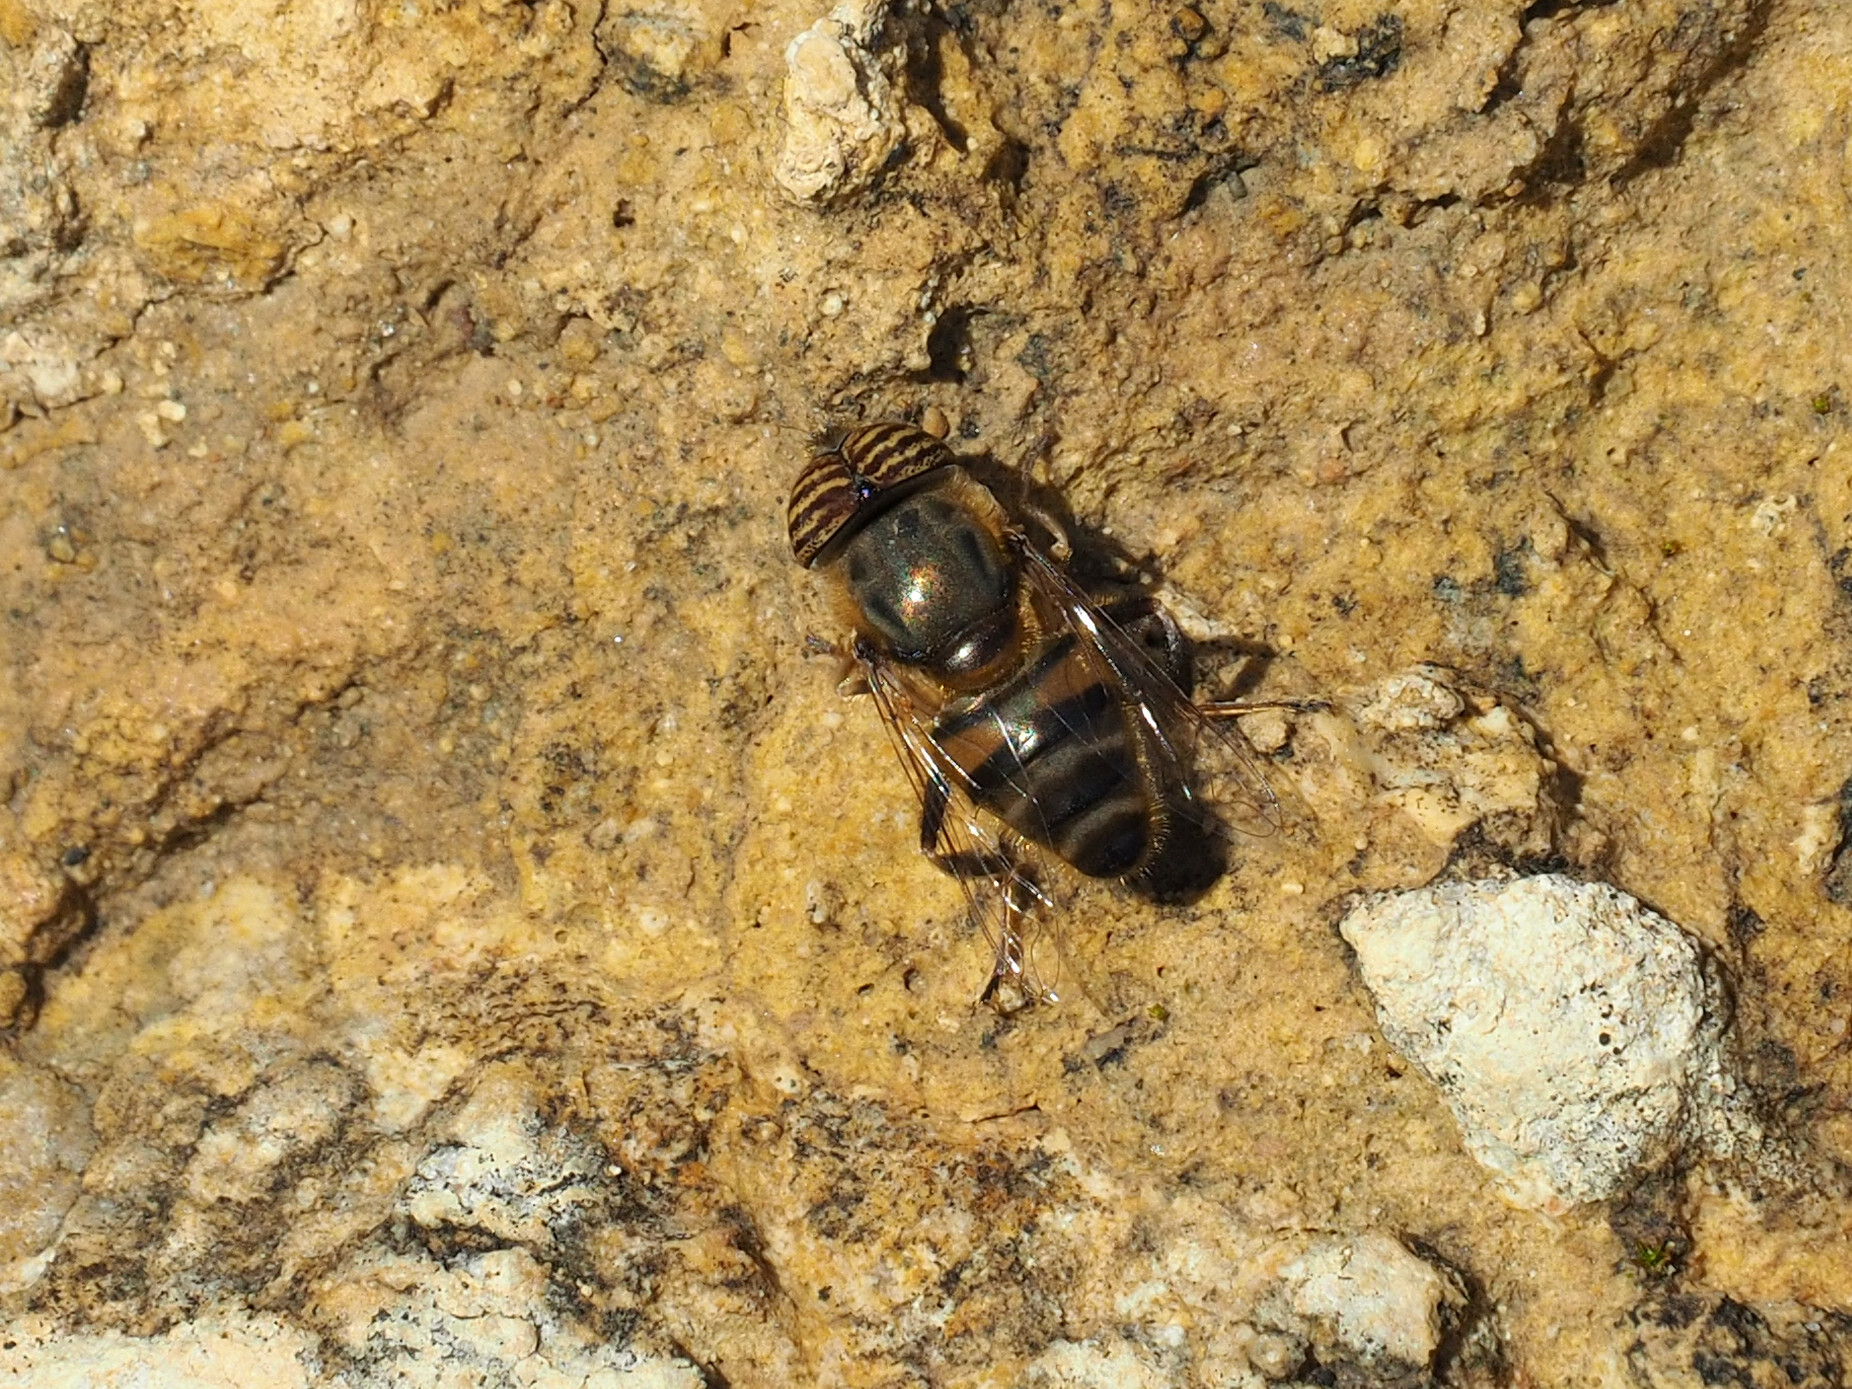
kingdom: Animalia
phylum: Arthropoda
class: Insecta
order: Diptera
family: Syrphidae
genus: Eristalinus
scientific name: Eristalinus taeniops
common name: Syrphid fly
